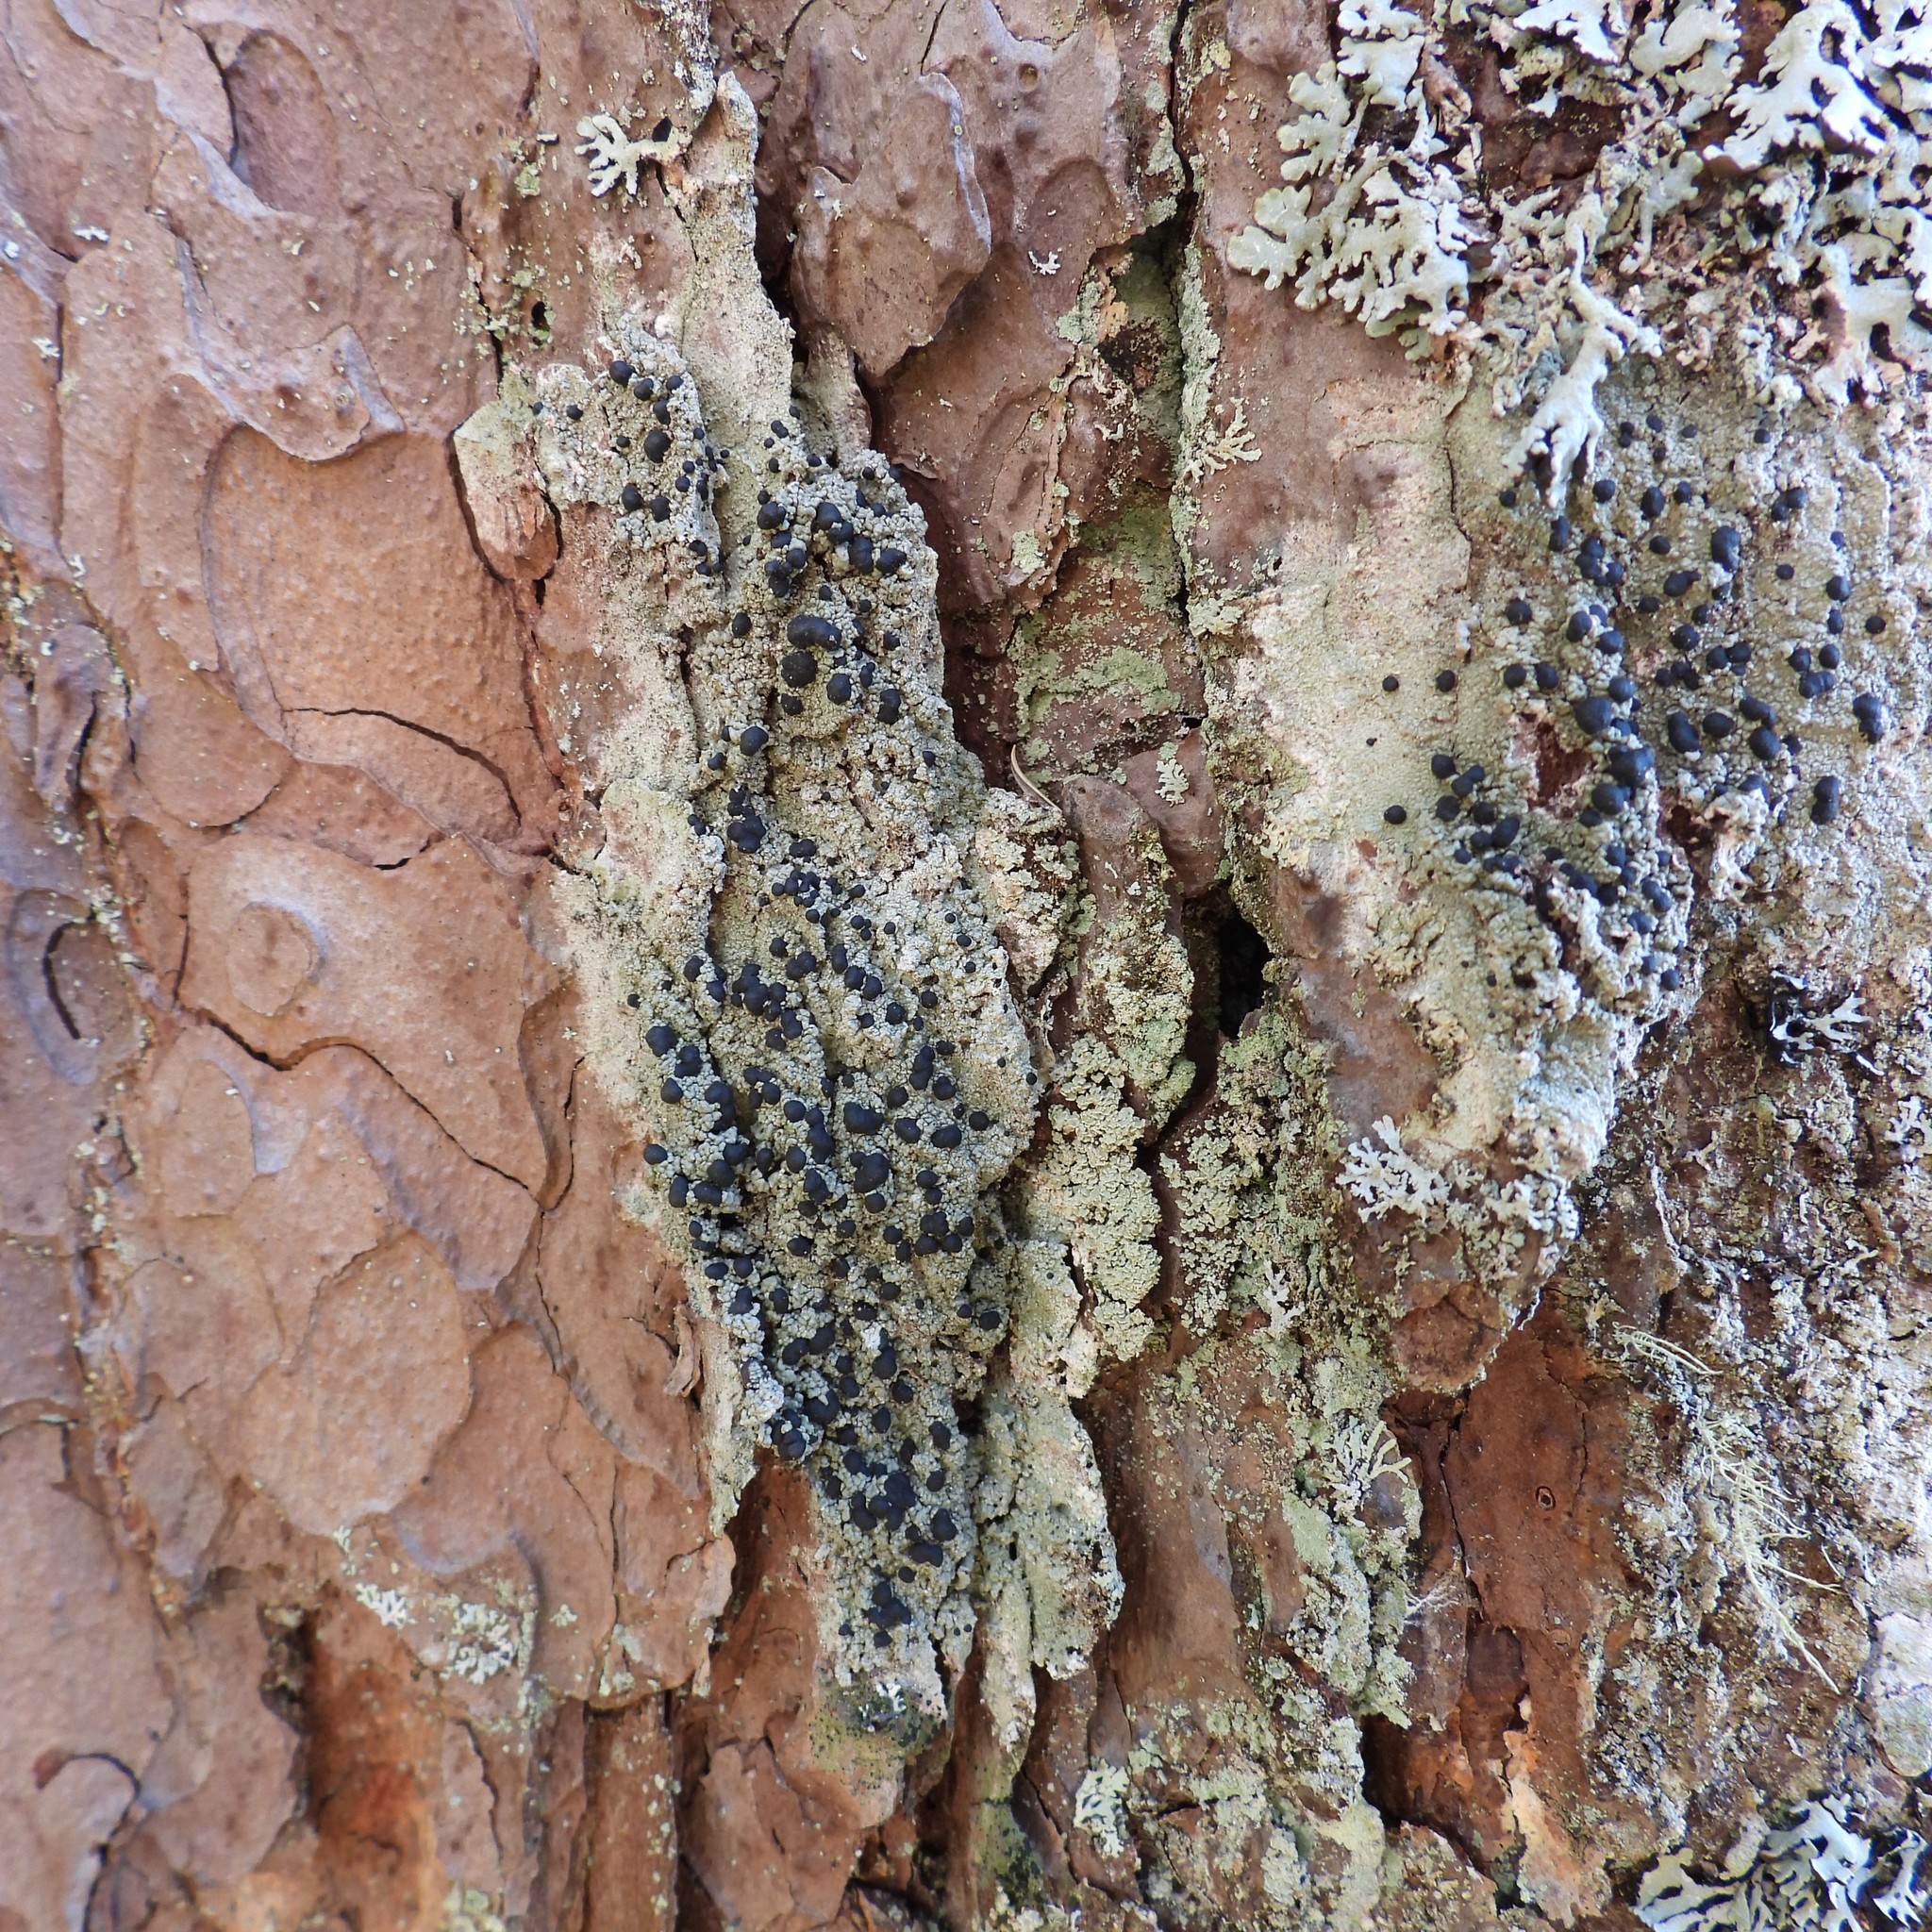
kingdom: Fungi
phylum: Ascomycota
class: Lecanoromycetes
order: Lecanorales
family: Tephromelataceae
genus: Mycoblastus
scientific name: Mycoblastus sanguinarius
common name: Bloody-heart lichen
